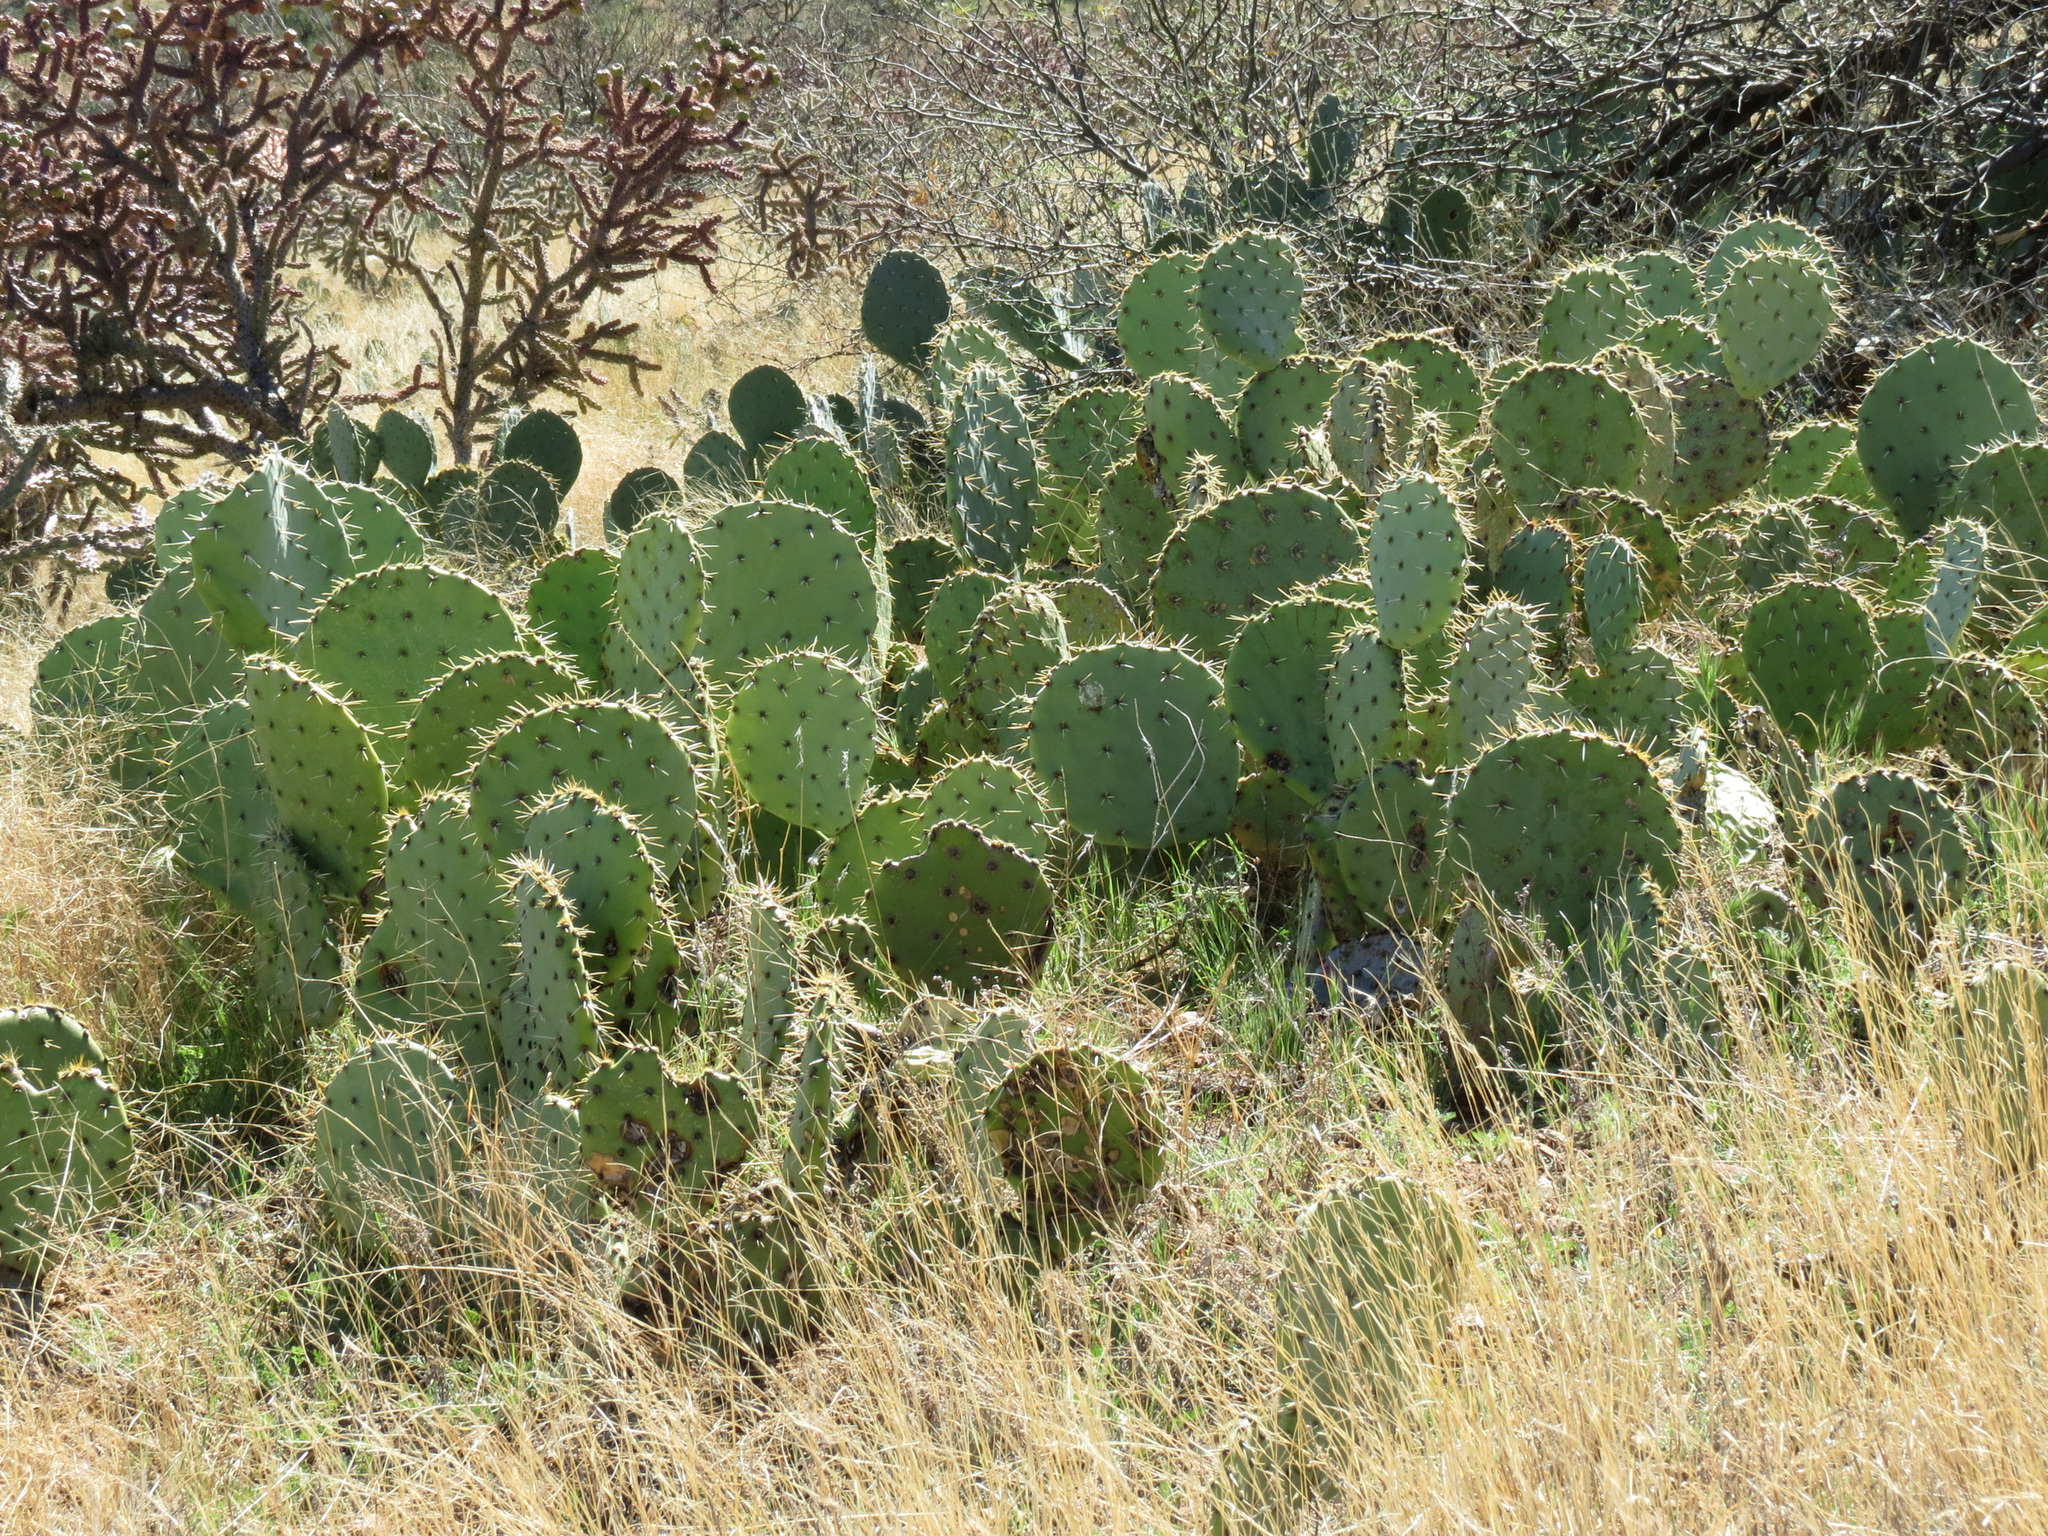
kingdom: Plantae
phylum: Tracheophyta
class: Magnoliopsida
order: Caryophyllales
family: Cactaceae
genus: Opuntia
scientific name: Opuntia engelmannii
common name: Cactus-apple
